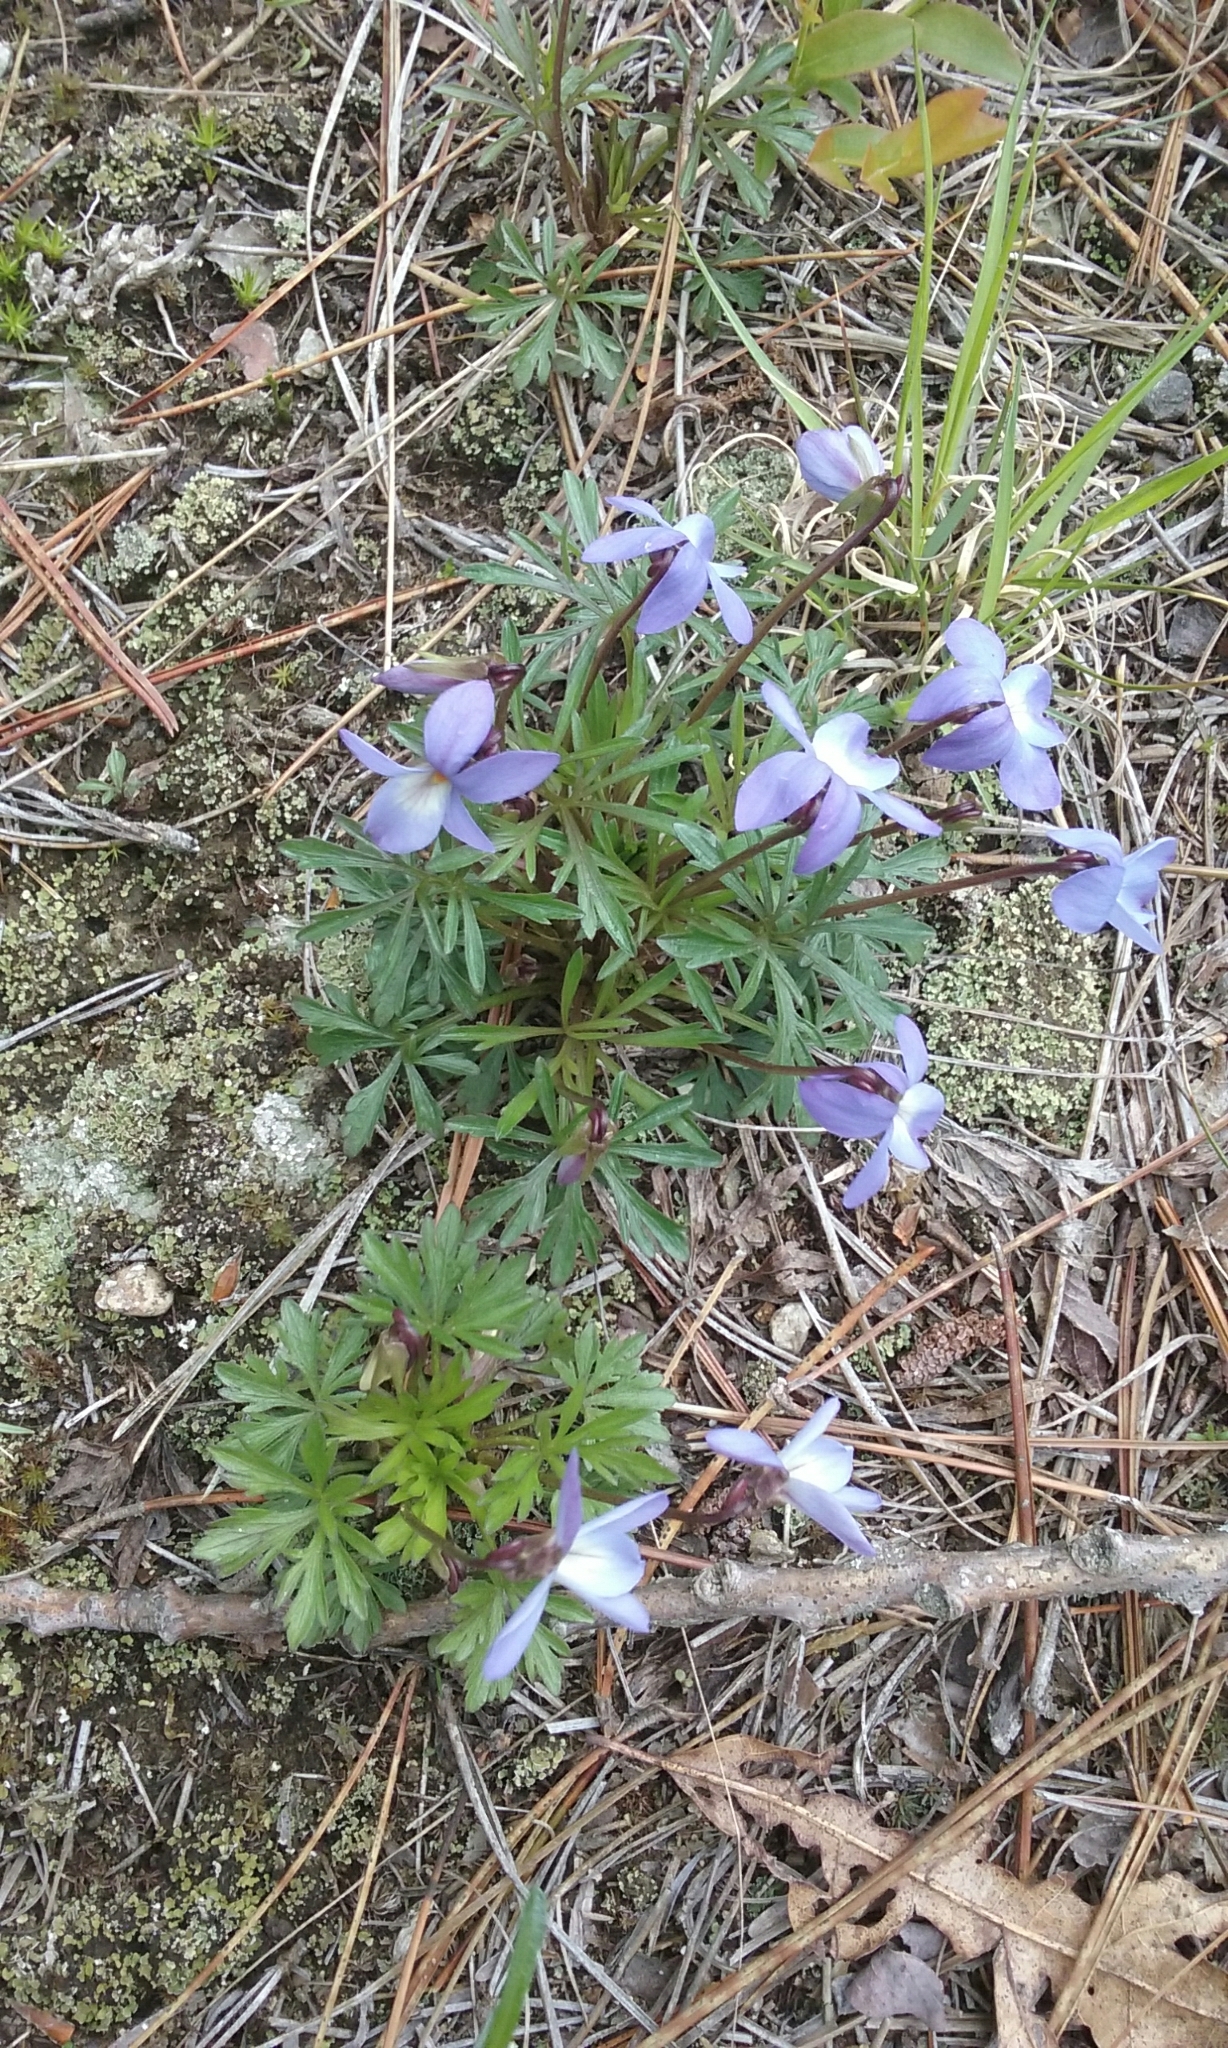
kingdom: Plantae
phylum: Tracheophyta
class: Magnoliopsida
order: Malpighiales
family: Violaceae
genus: Viola
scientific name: Viola pedata
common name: Pansy violet
